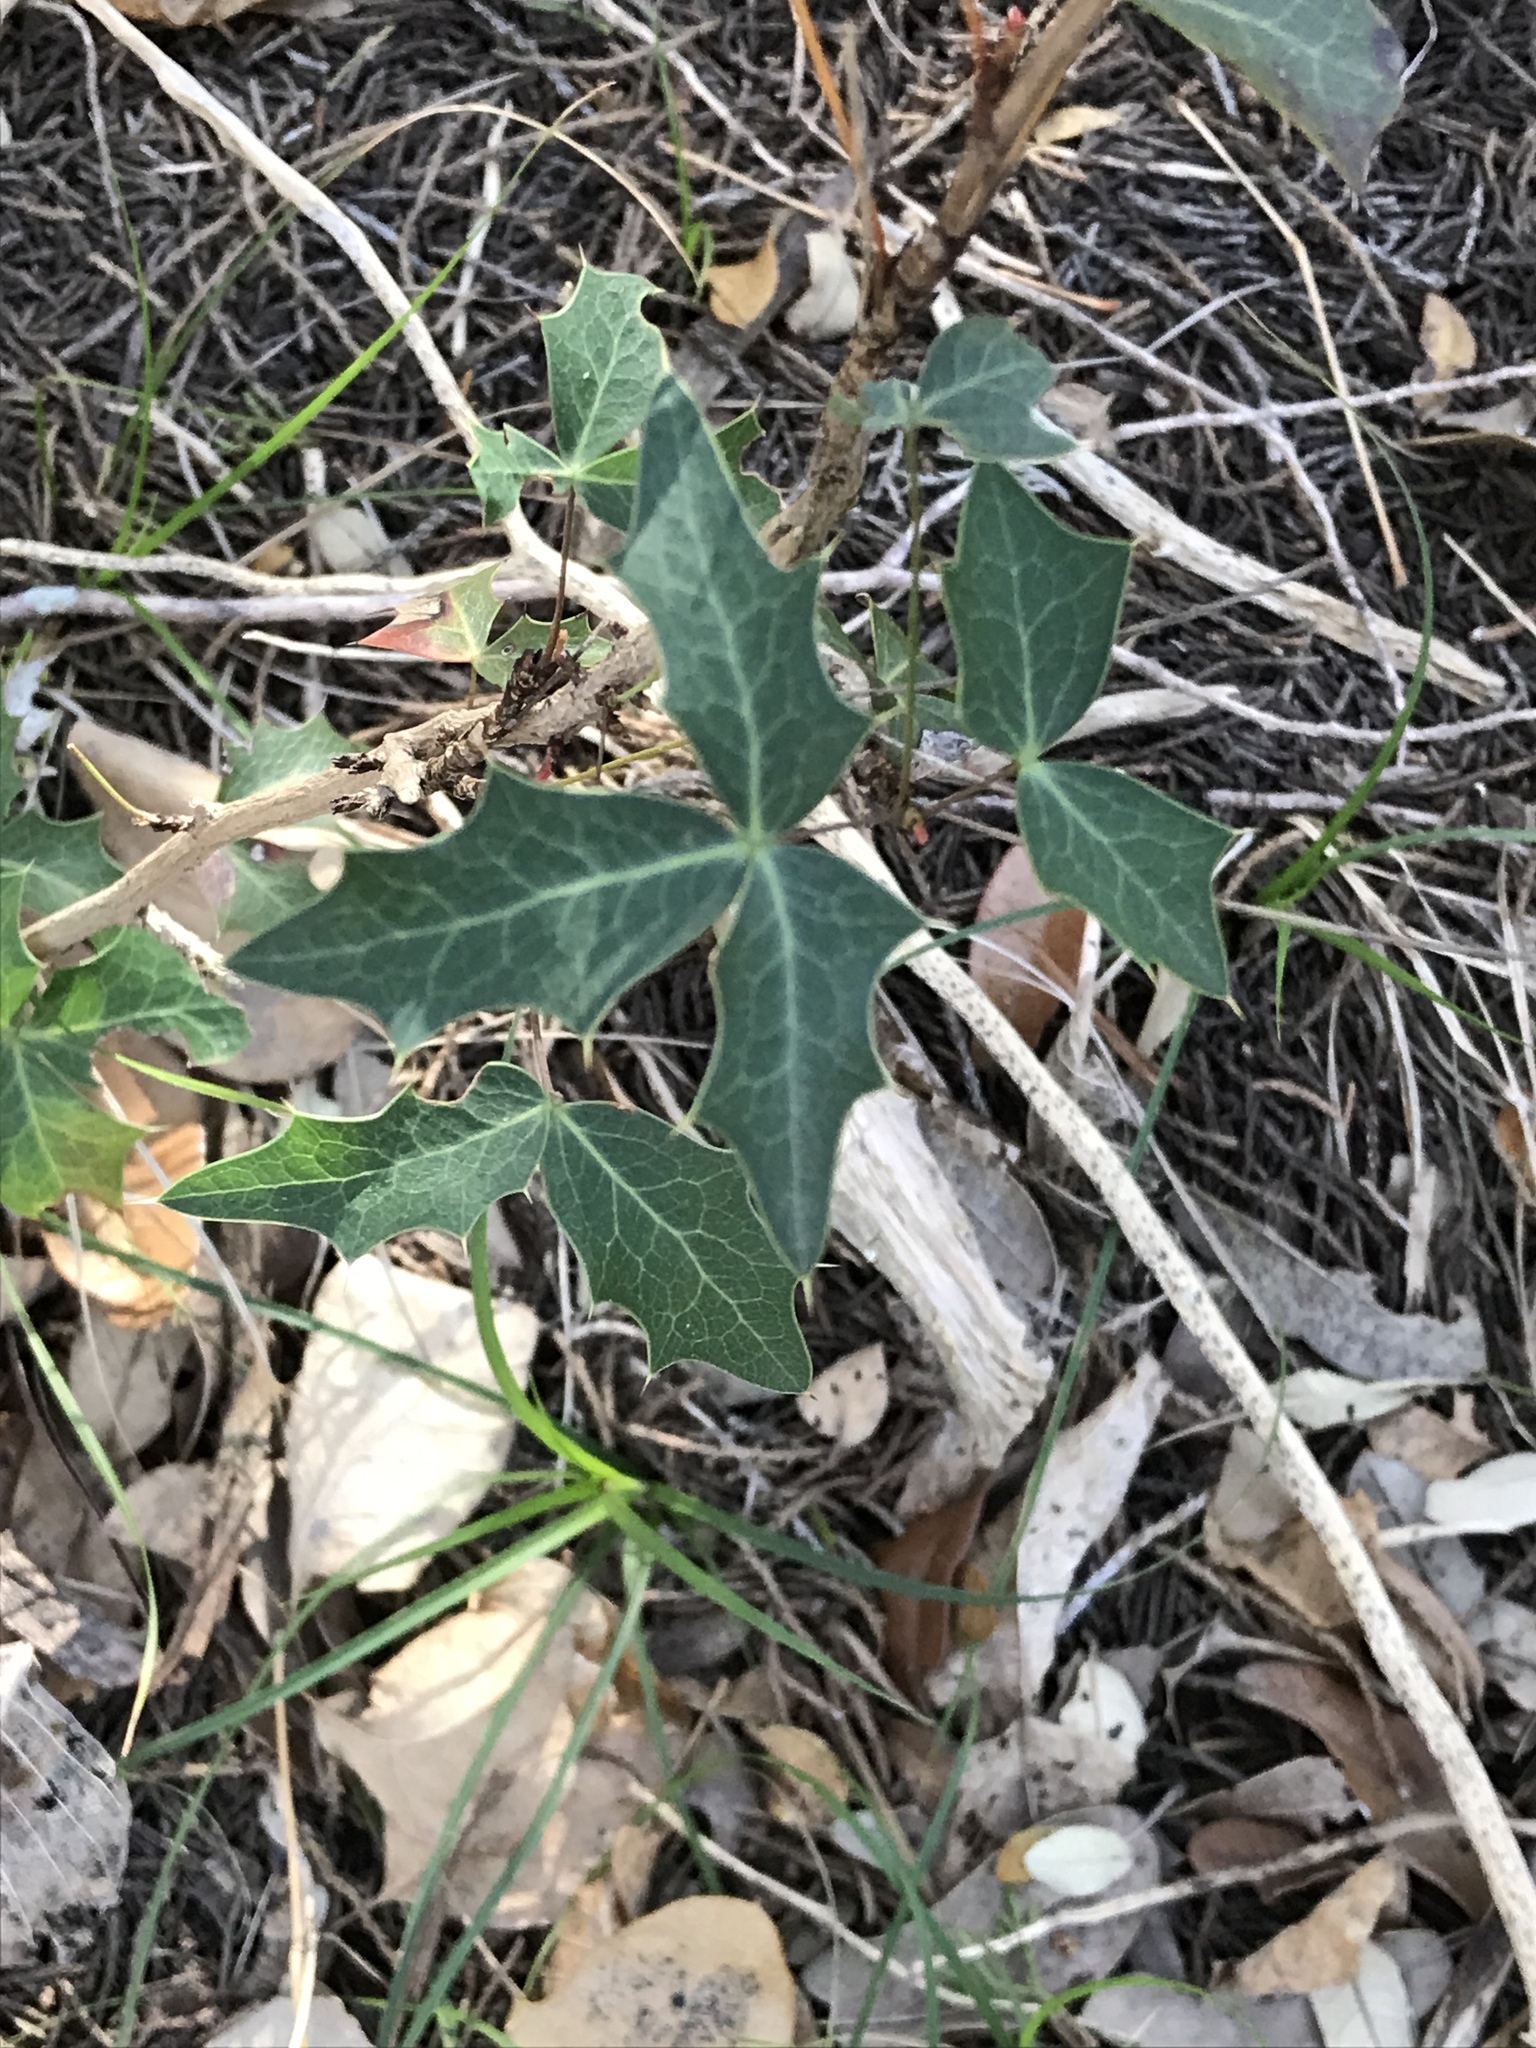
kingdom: Plantae
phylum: Tracheophyta
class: Magnoliopsida
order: Ranunculales
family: Berberidaceae
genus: Alloberberis
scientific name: Alloberberis trifoliolata
